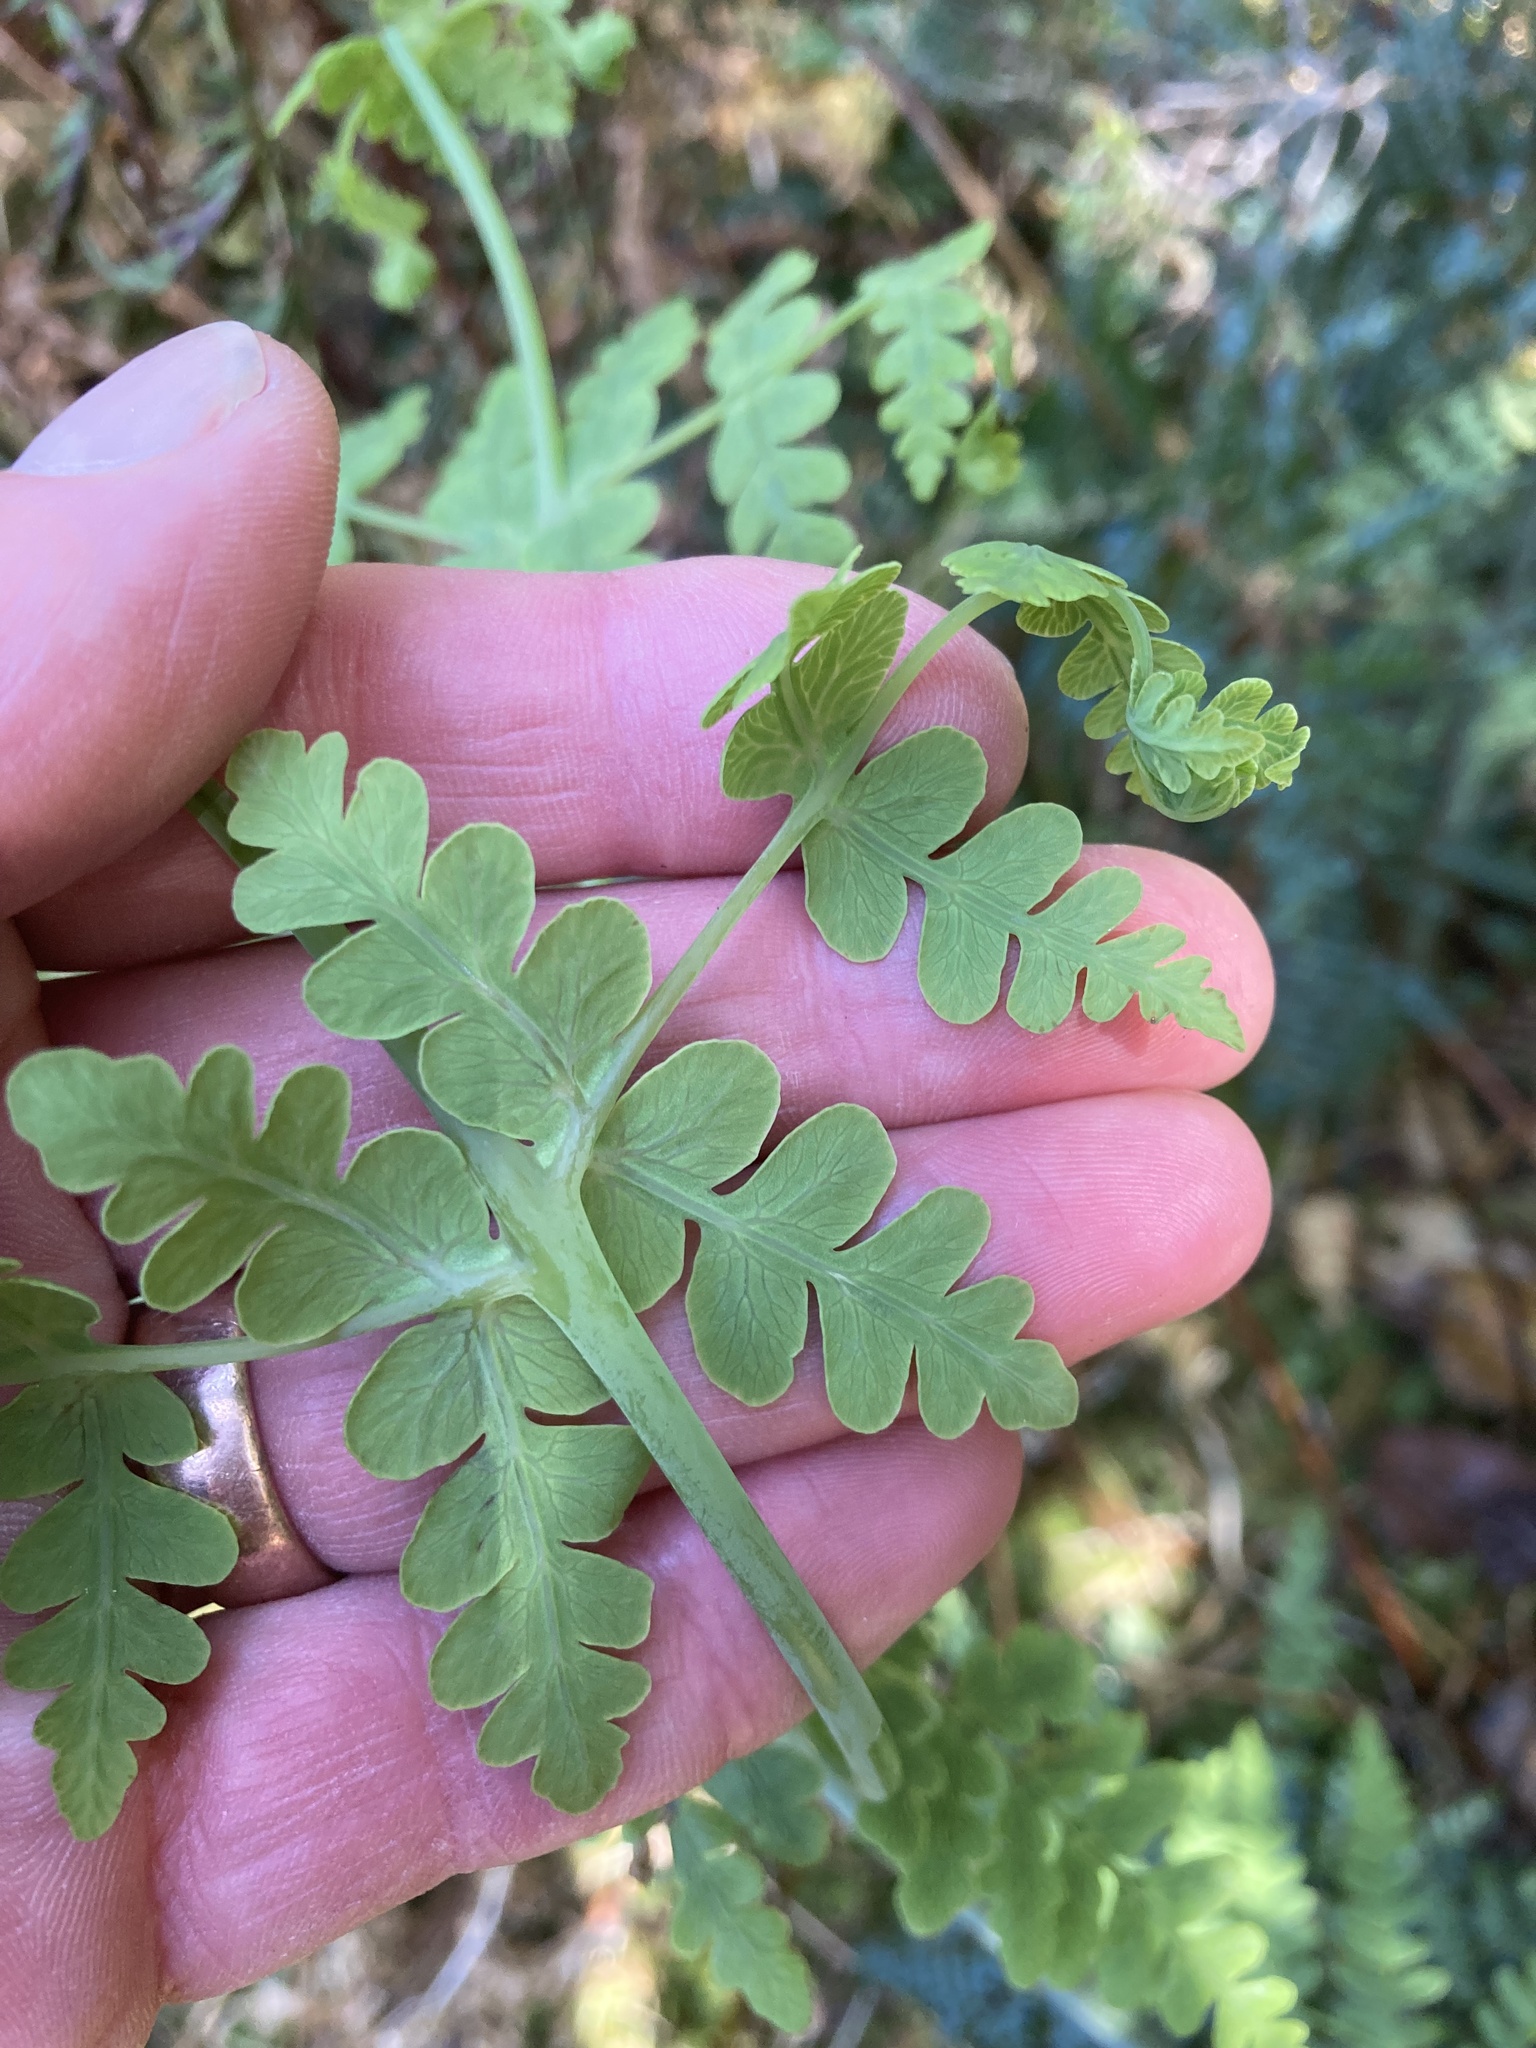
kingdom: Plantae
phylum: Tracheophyta
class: Polypodiopsida
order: Polypodiales
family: Dennstaedtiaceae
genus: Histiopteris
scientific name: Histiopteris incisa
